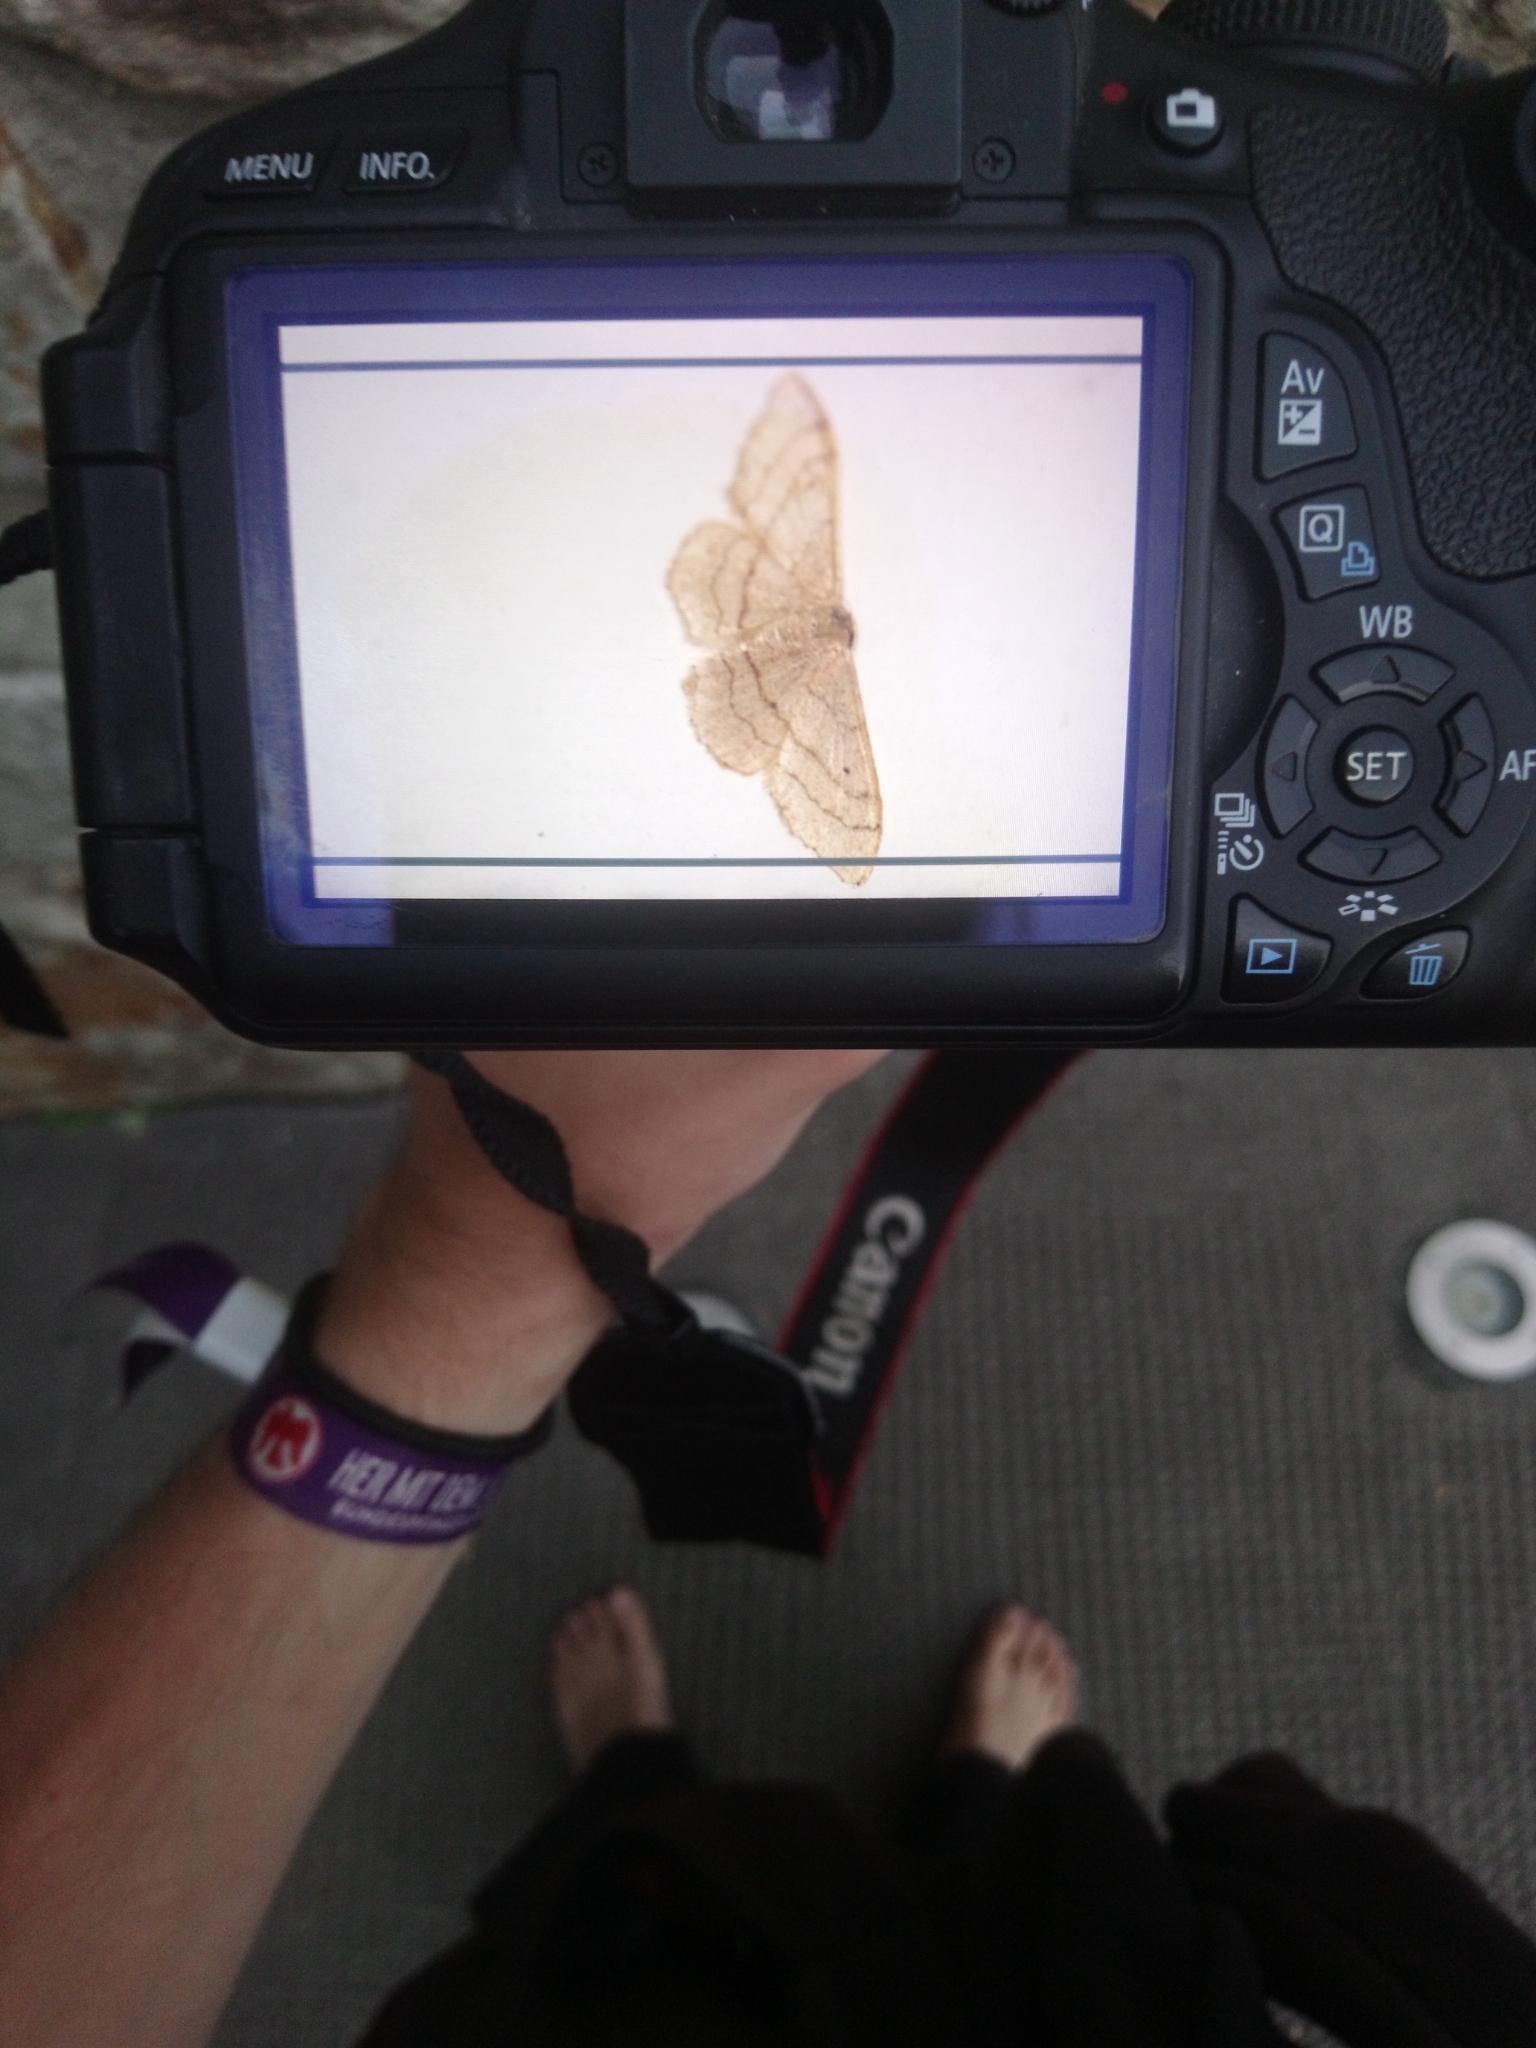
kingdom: Animalia
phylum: Arthropoda
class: Insecta
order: Lepidoptera
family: Geometridae
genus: Idaea
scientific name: Idaea aversata
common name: Riband wave
